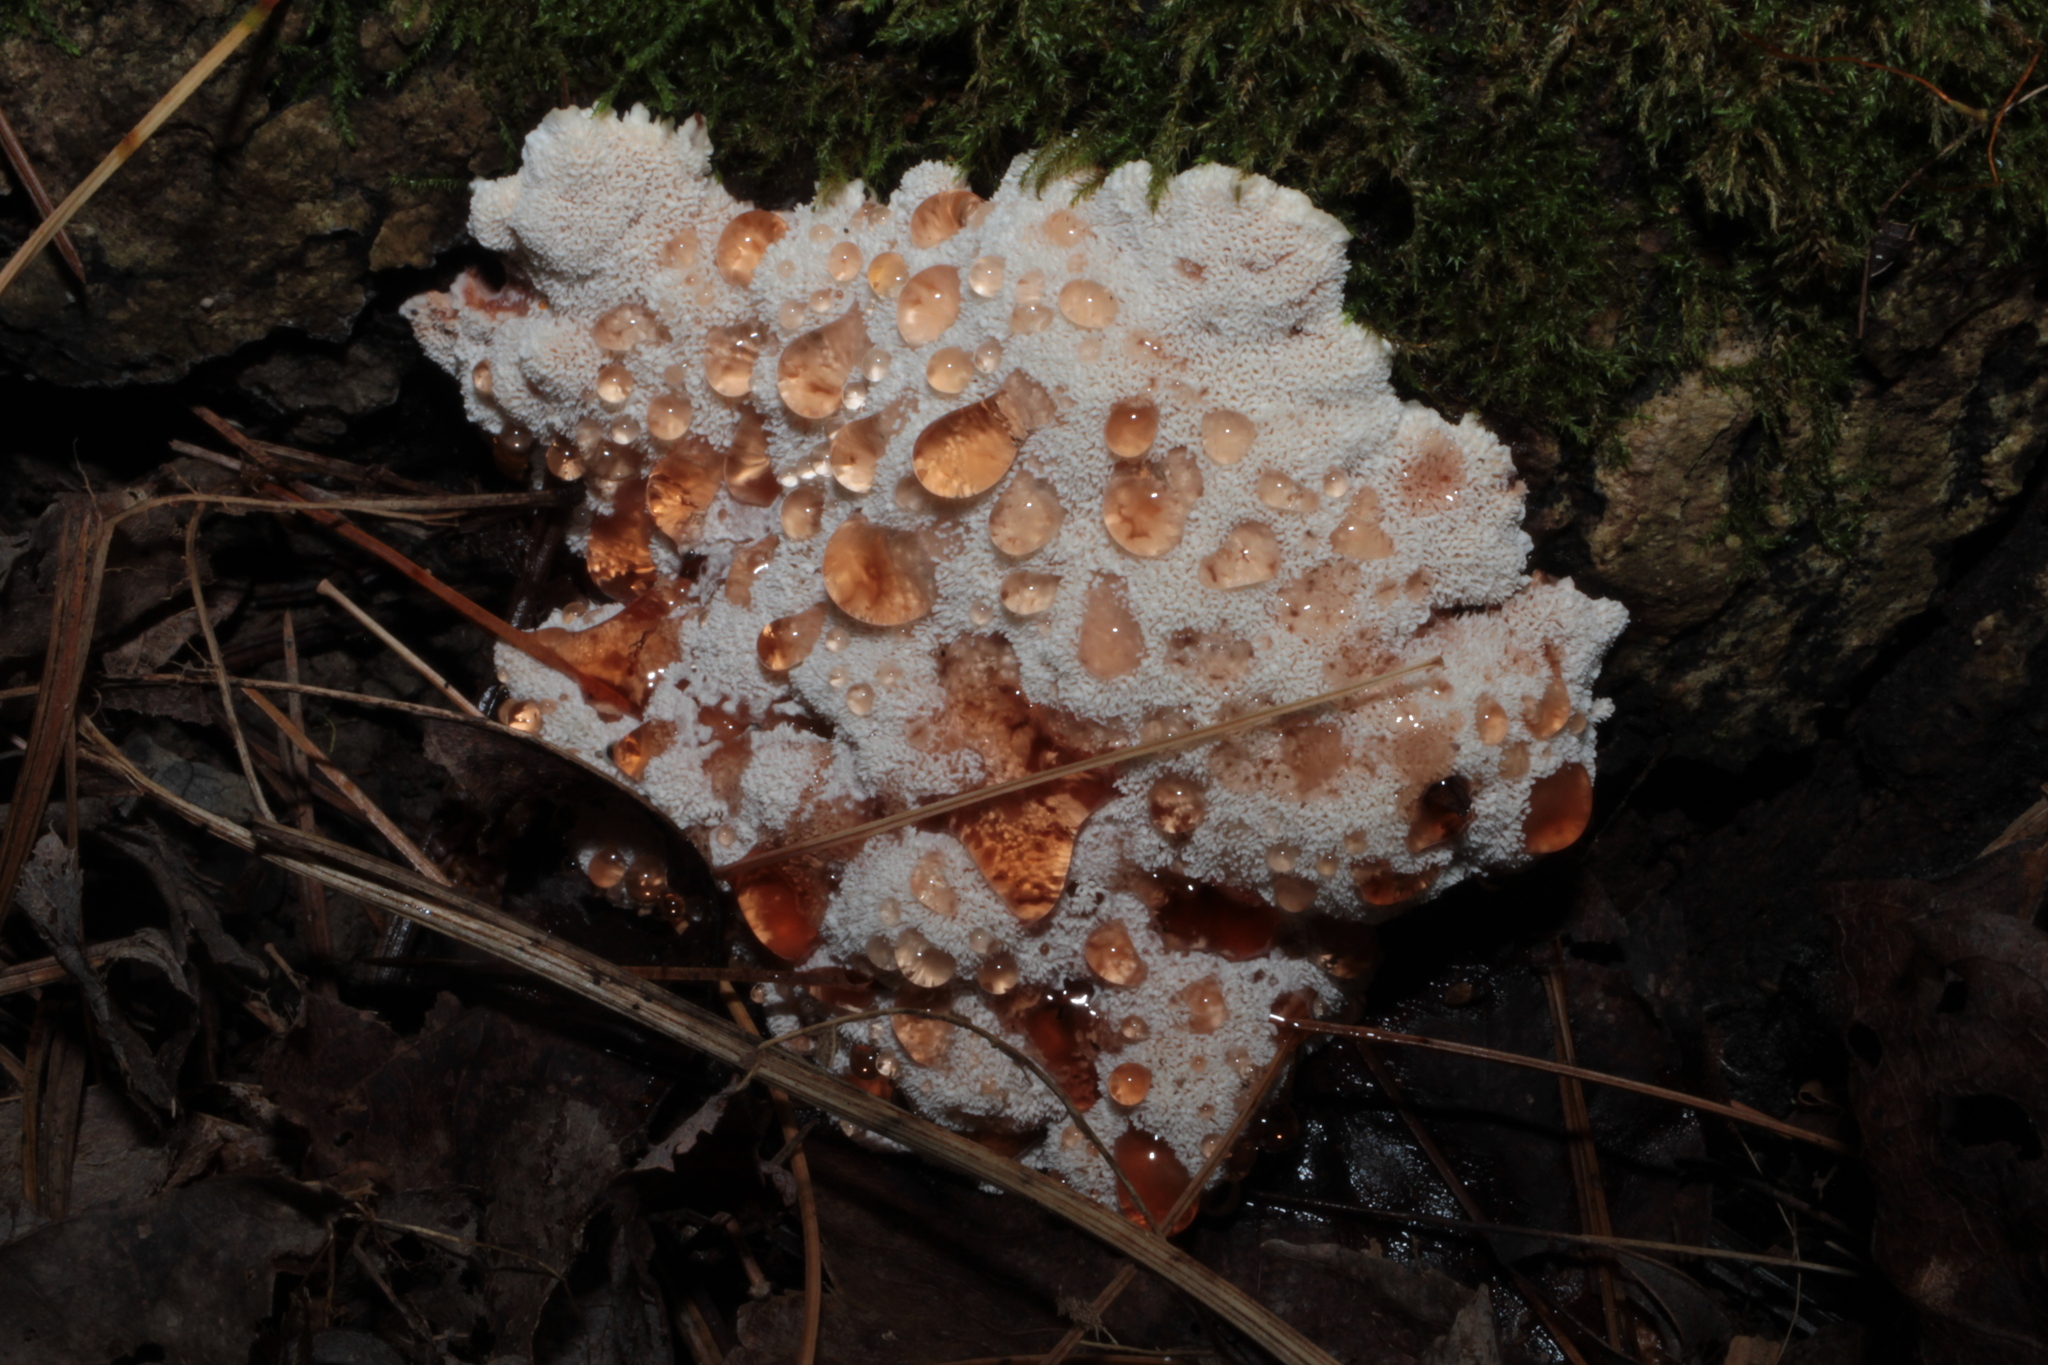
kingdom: Fungi
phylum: Basidiomycota
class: Agaricomycetes
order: Polyporales
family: Podoscyphaceae
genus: Abortiporus
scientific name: Abortiporus biennis
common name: Blushing rosette
